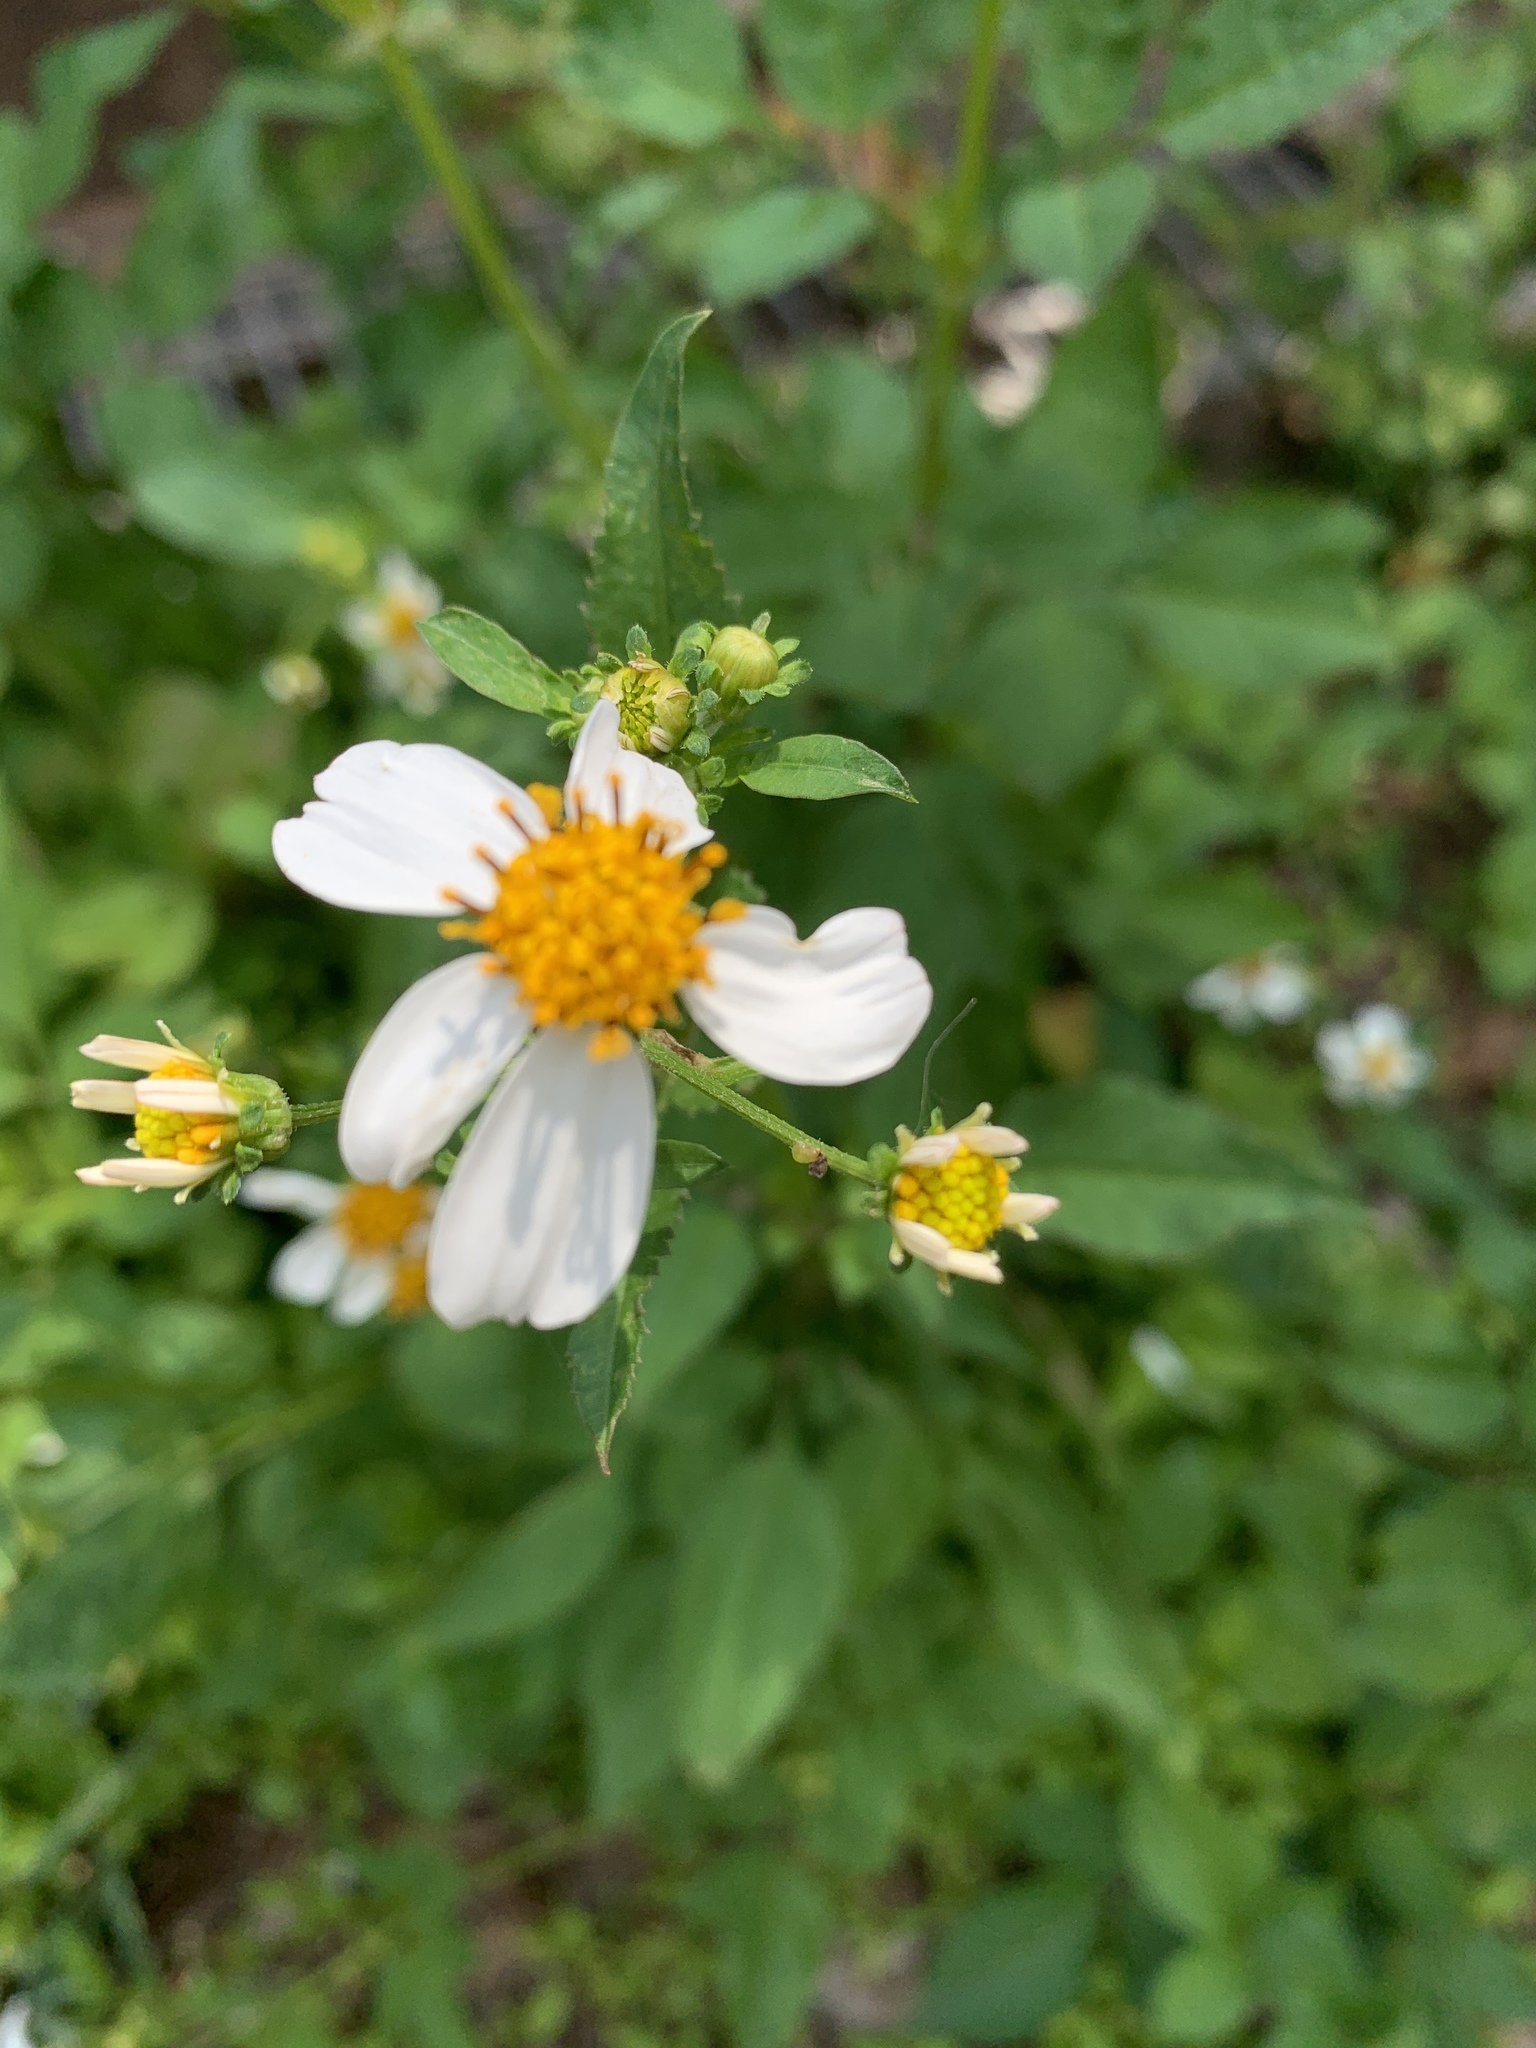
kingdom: Plantae
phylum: Tracheophyta
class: Magnoliopsida
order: Asterales
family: Asteraceae
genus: Bidens
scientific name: Bidens alba
